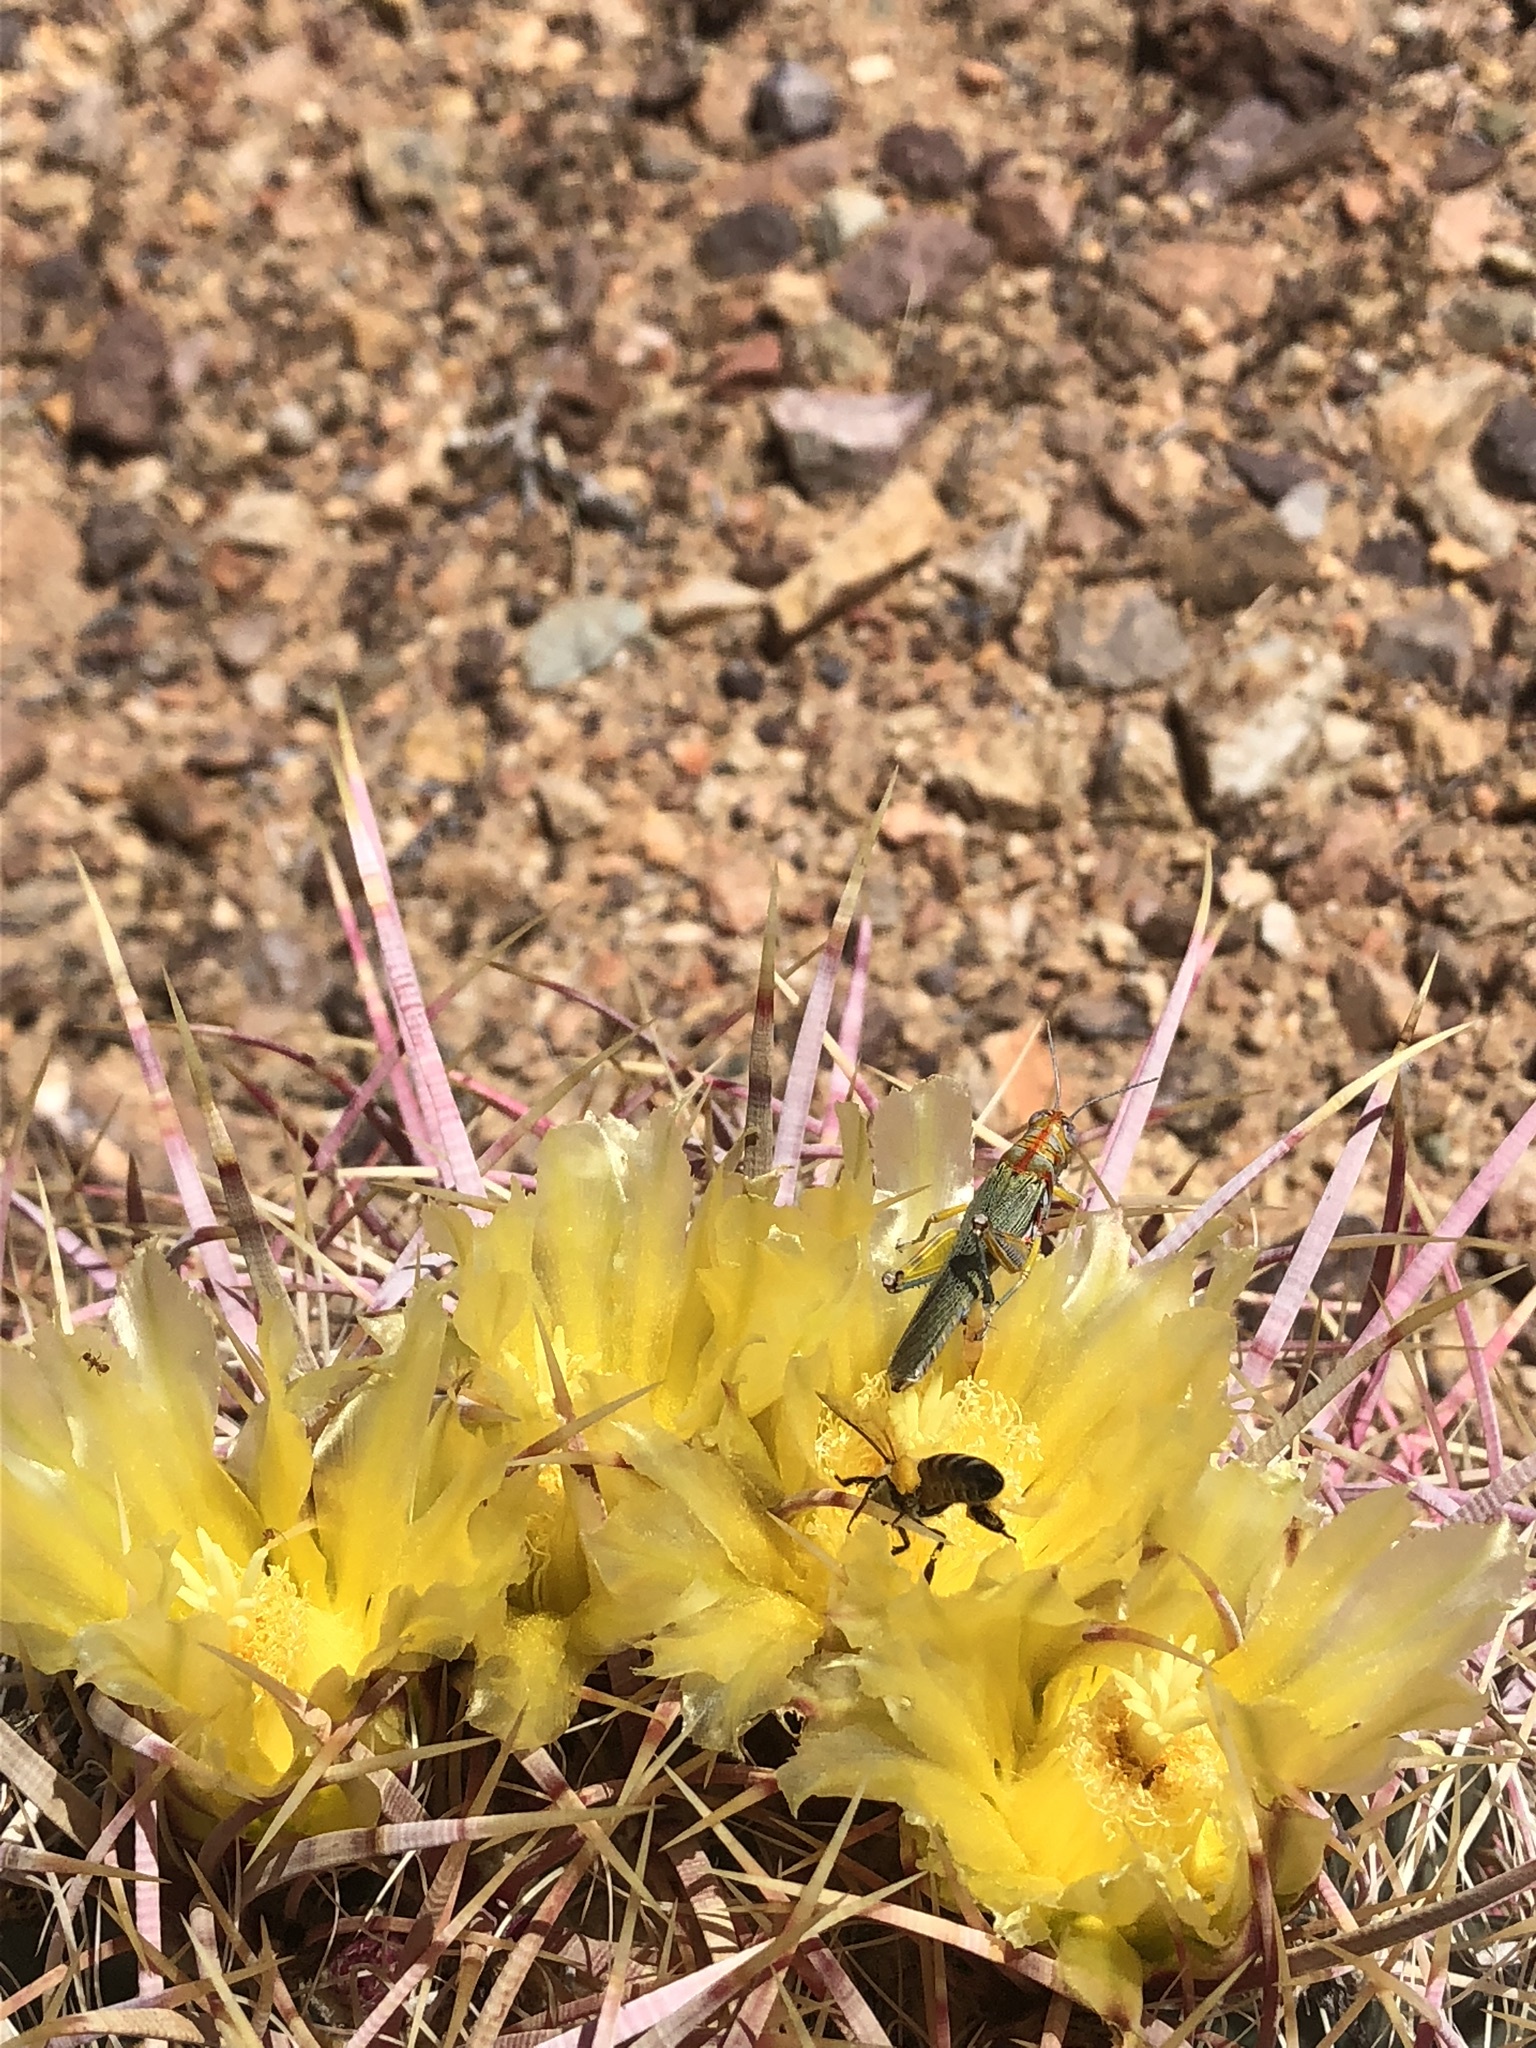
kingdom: Animalia
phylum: Arthropoda
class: Insecta
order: Orthoptera
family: Acrididae
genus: Poecilotettix
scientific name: Poecilotettix sanguineus
